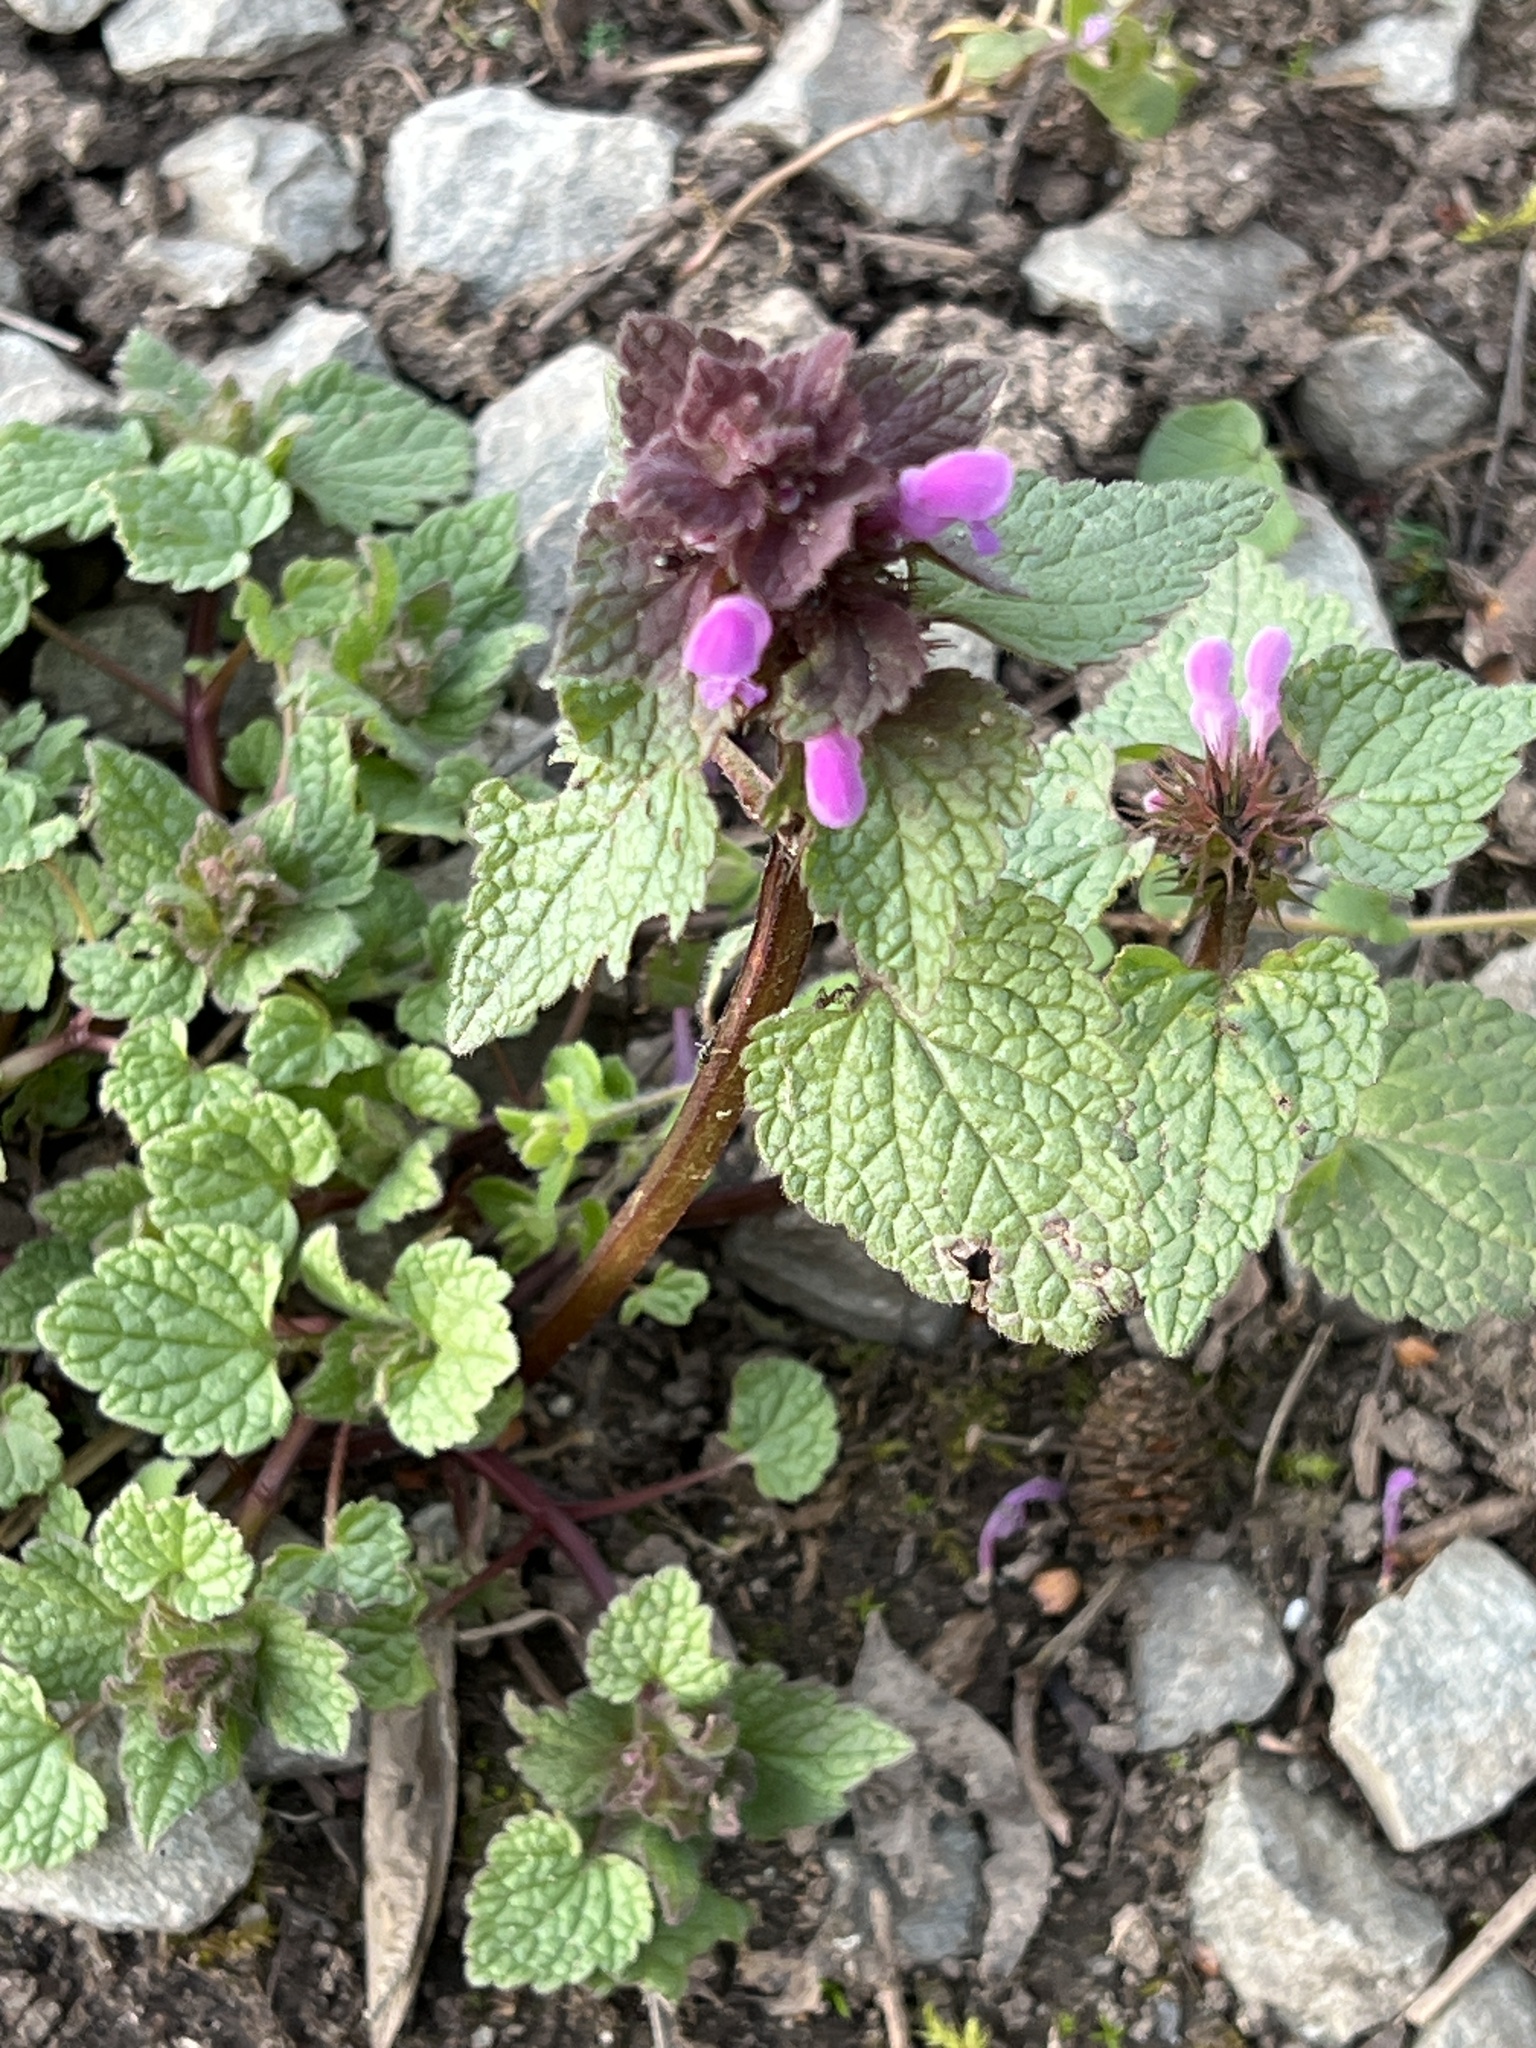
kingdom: Plantae
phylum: Tracheophyta
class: Magnoliopsida
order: Lamiales
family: Lamiaceae
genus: Lamium
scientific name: Lamium purpureum
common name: Red dead-nettle
